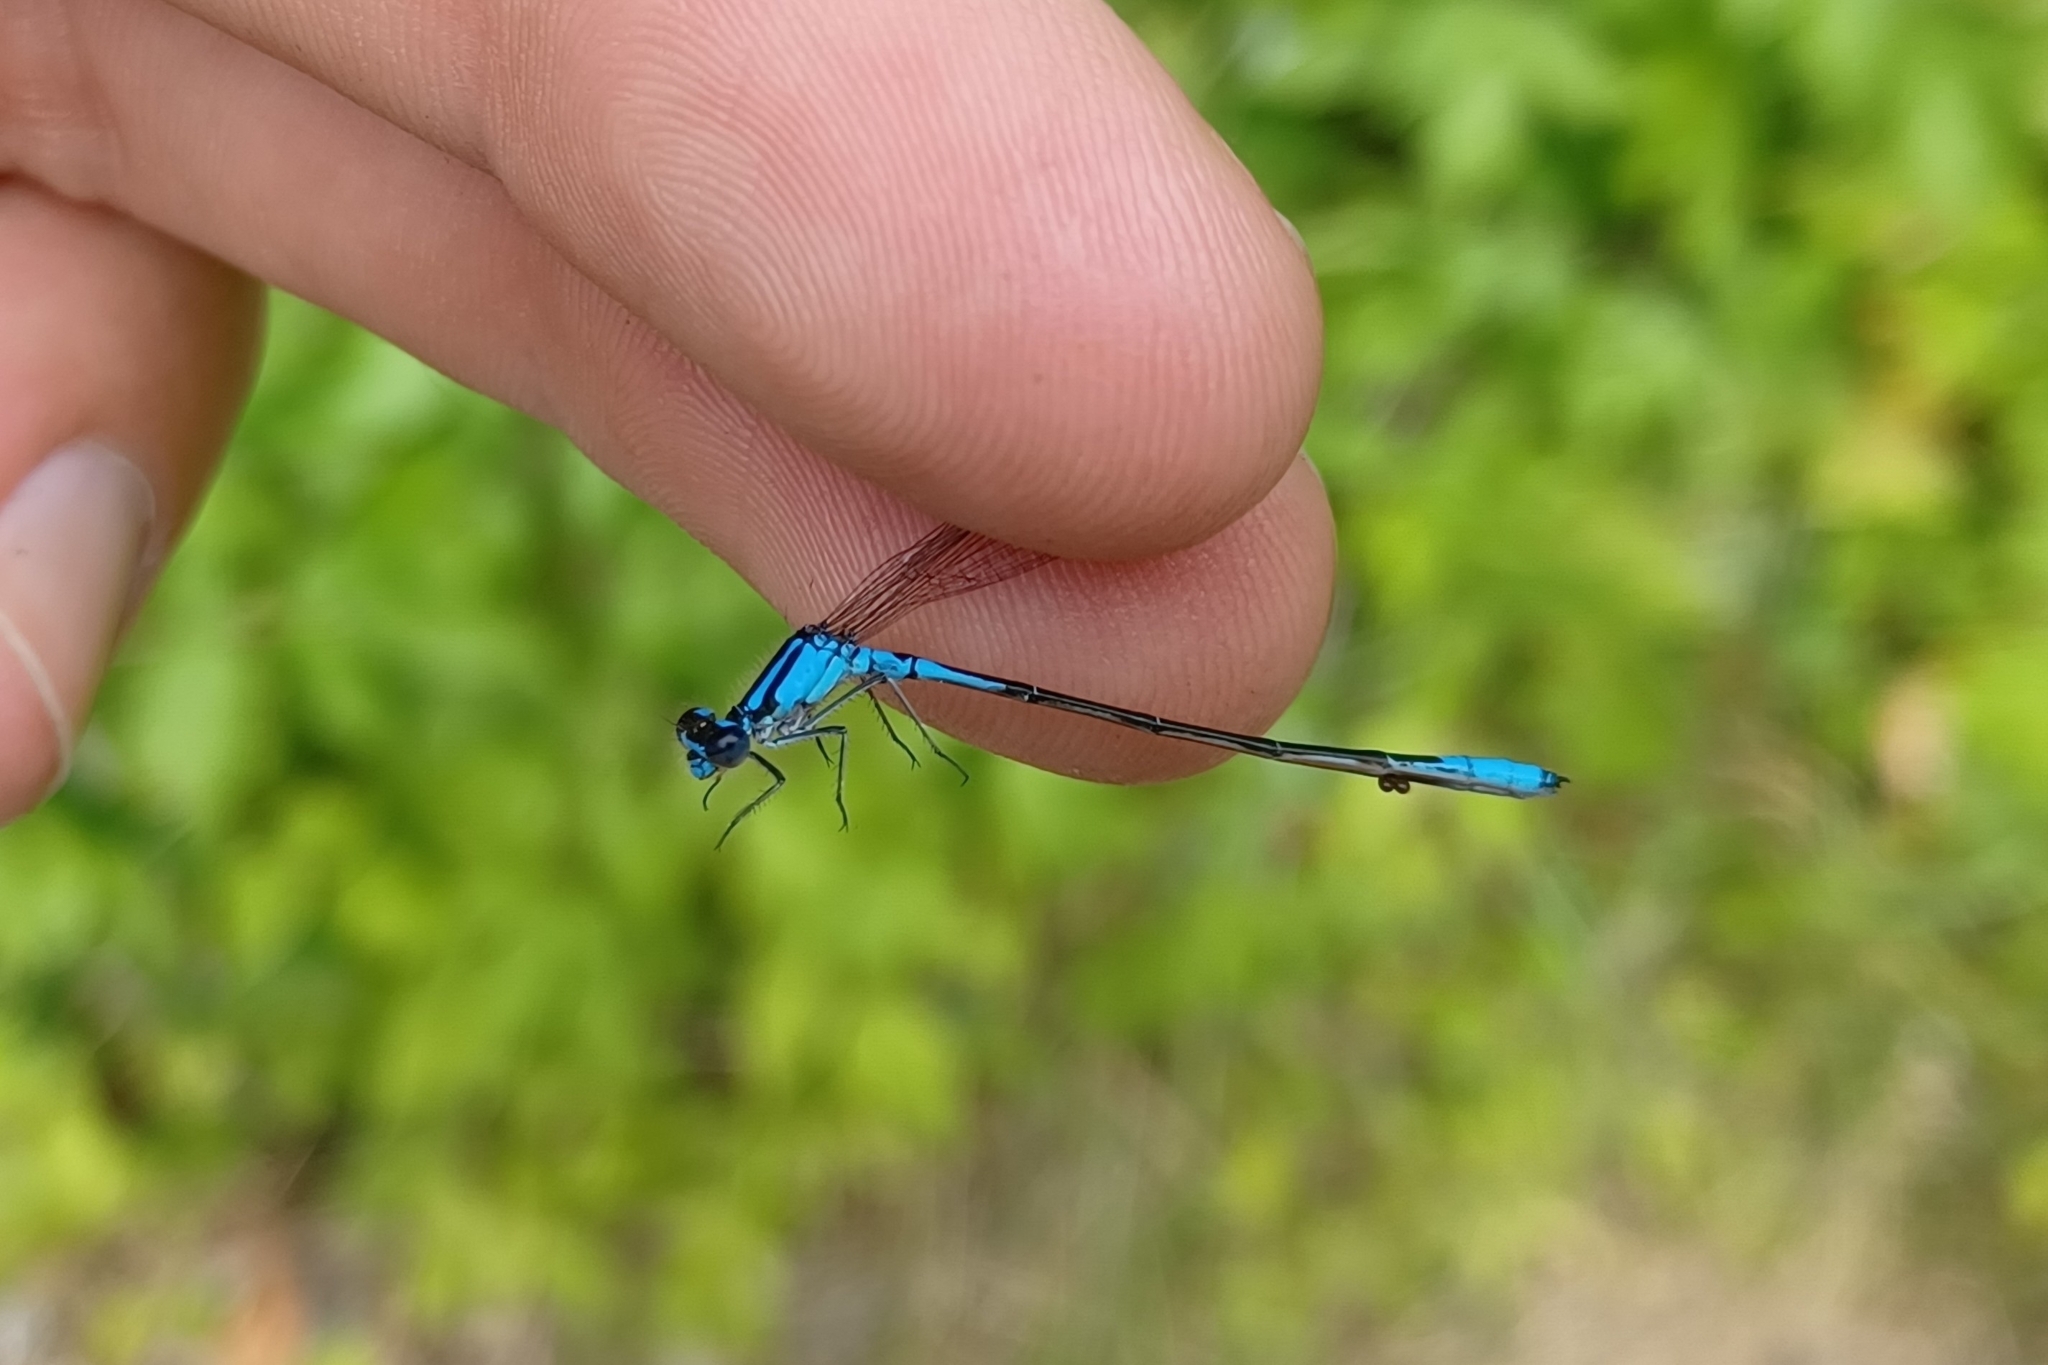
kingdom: Animalia
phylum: Arthropoda
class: Insecta
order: Odonata
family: Coenagrionidae
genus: Enallagma
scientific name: Enallagma aspersum
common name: Azure bluet
